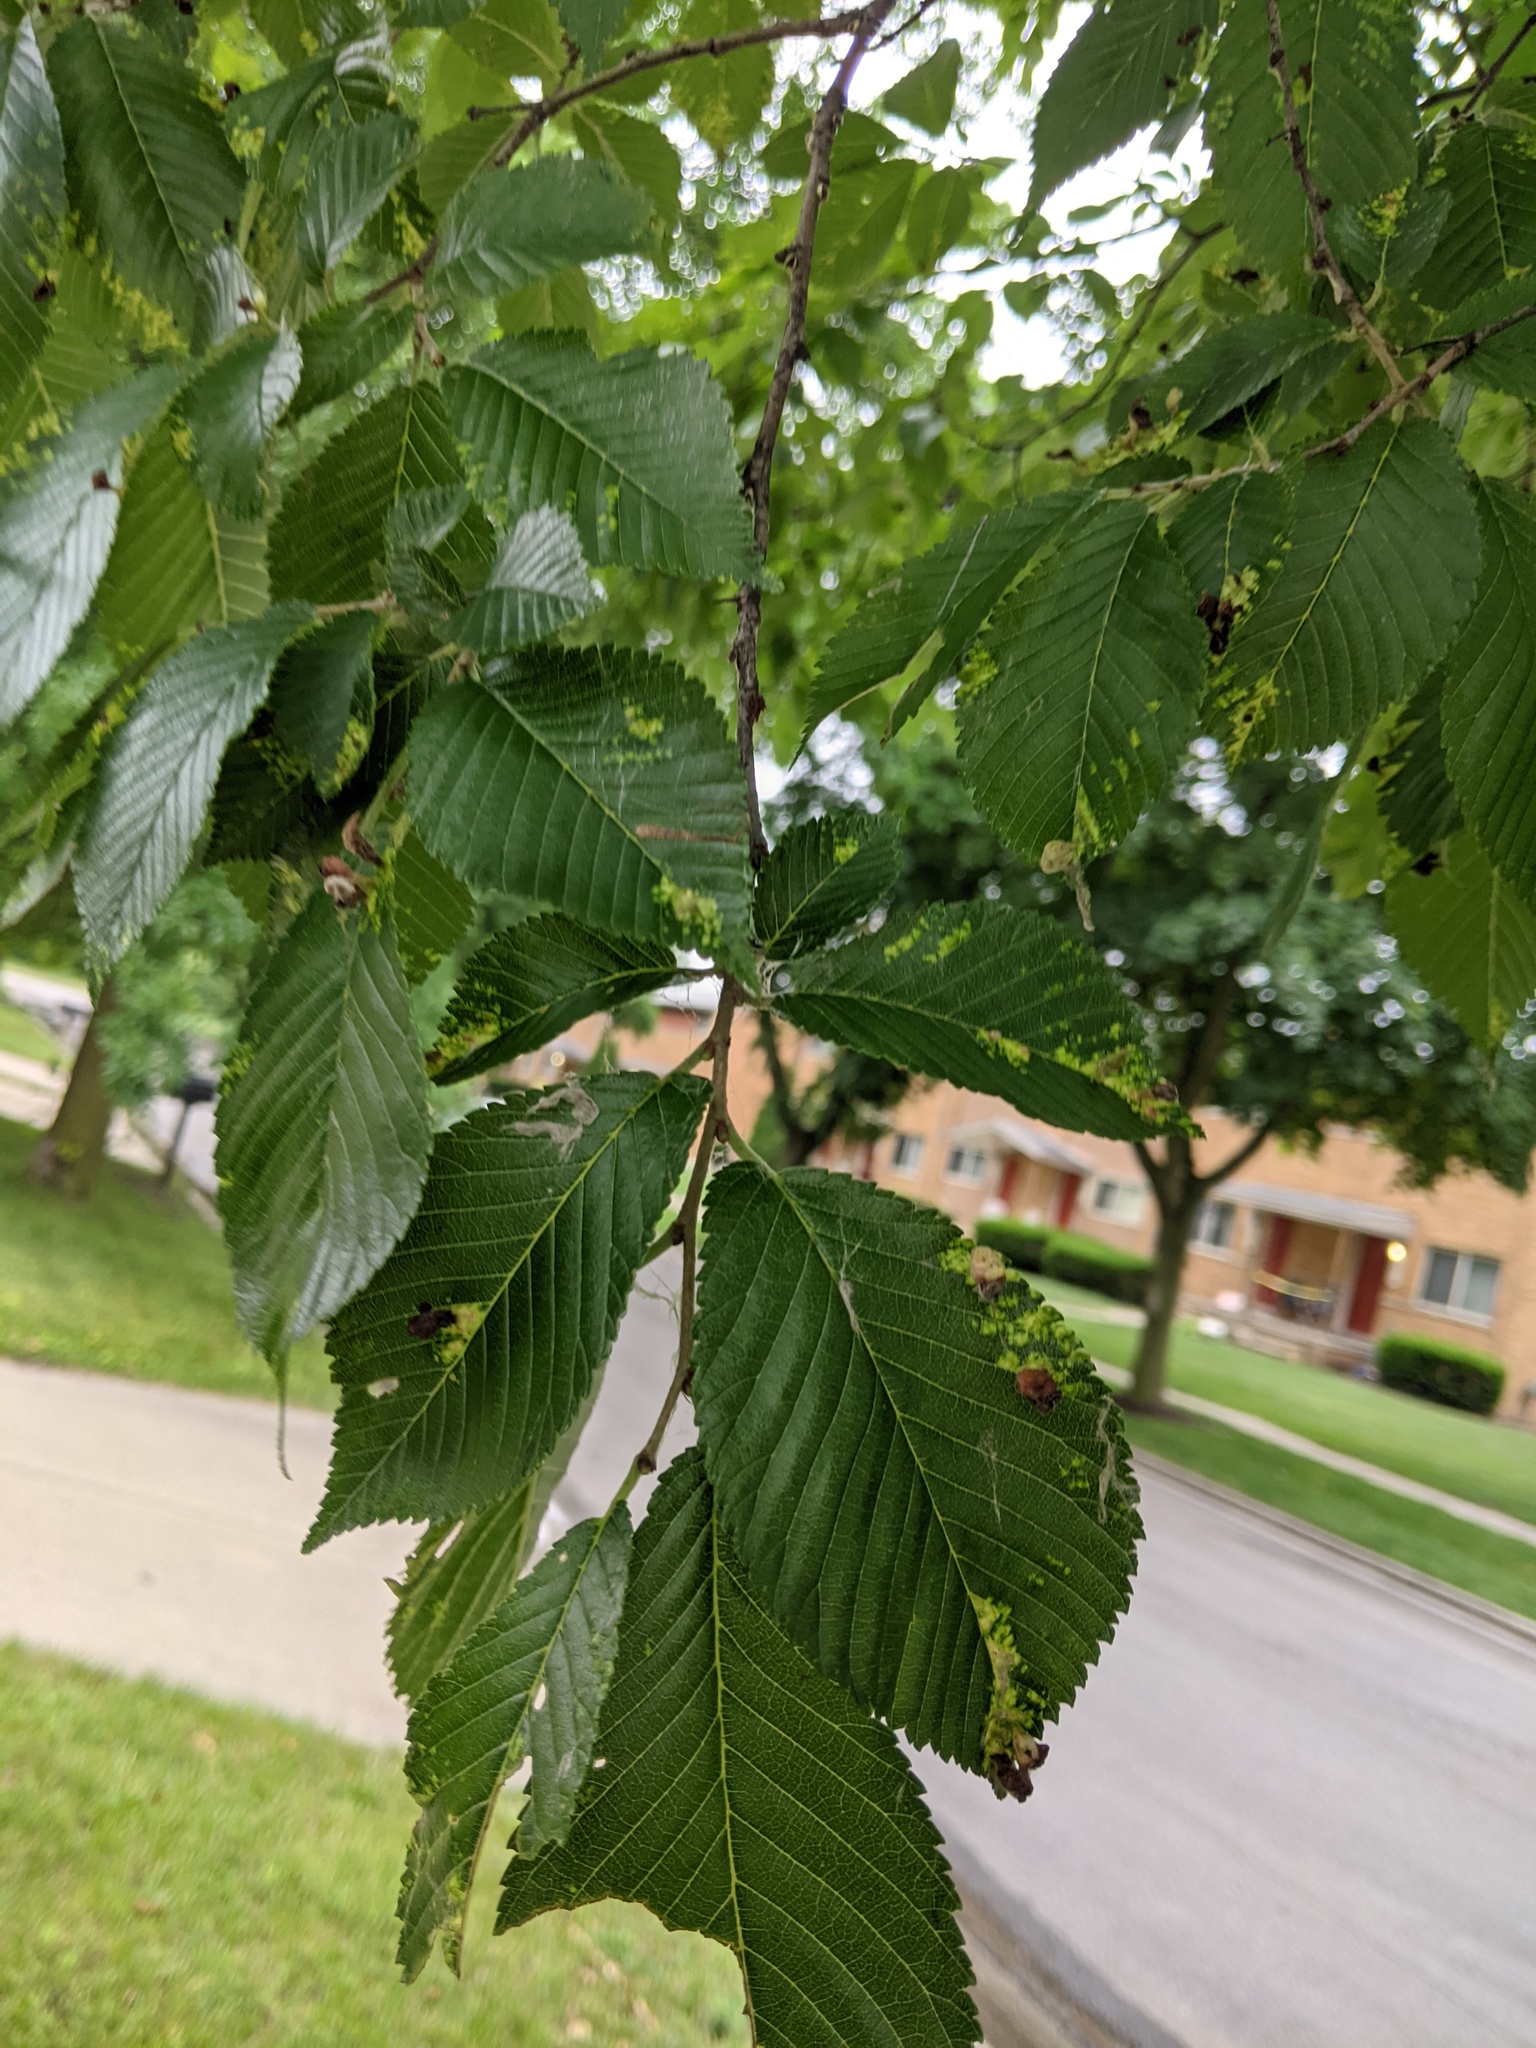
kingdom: Animalia
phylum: Arthropoda
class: Insecta
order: Hemiptera
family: Aphididae
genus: Tetraneura
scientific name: Tetraneura nigriabdominalis
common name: Aphid
